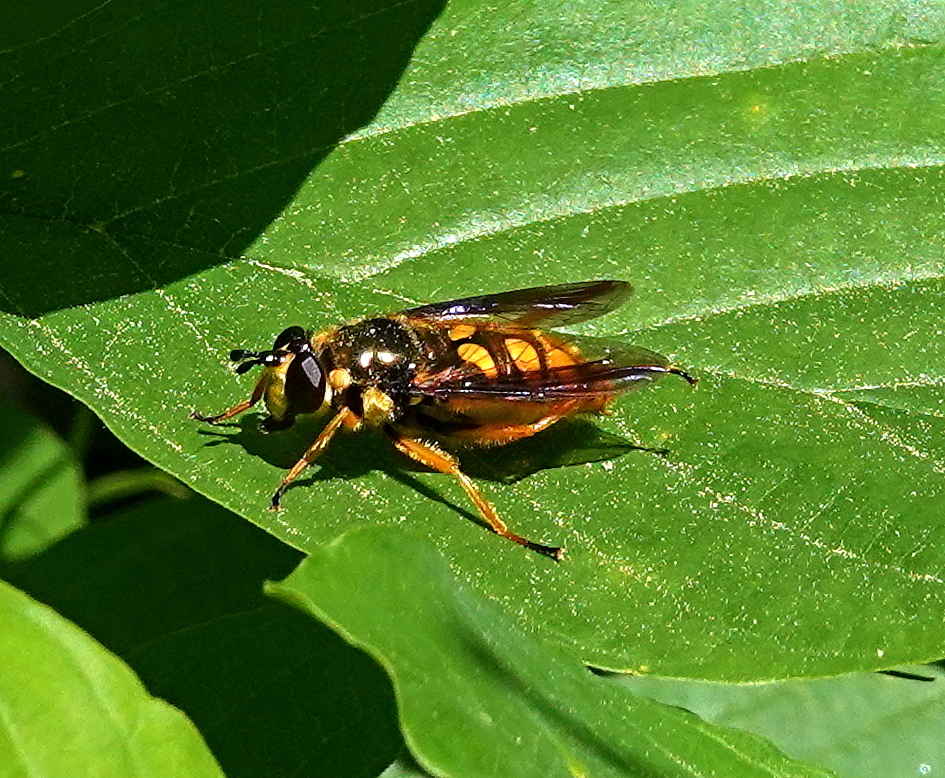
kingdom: Animalia
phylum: Arthropoda
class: Insecta
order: Diptera
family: Syrphidae
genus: Somula
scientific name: Somula decora
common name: Spotted wood fly
